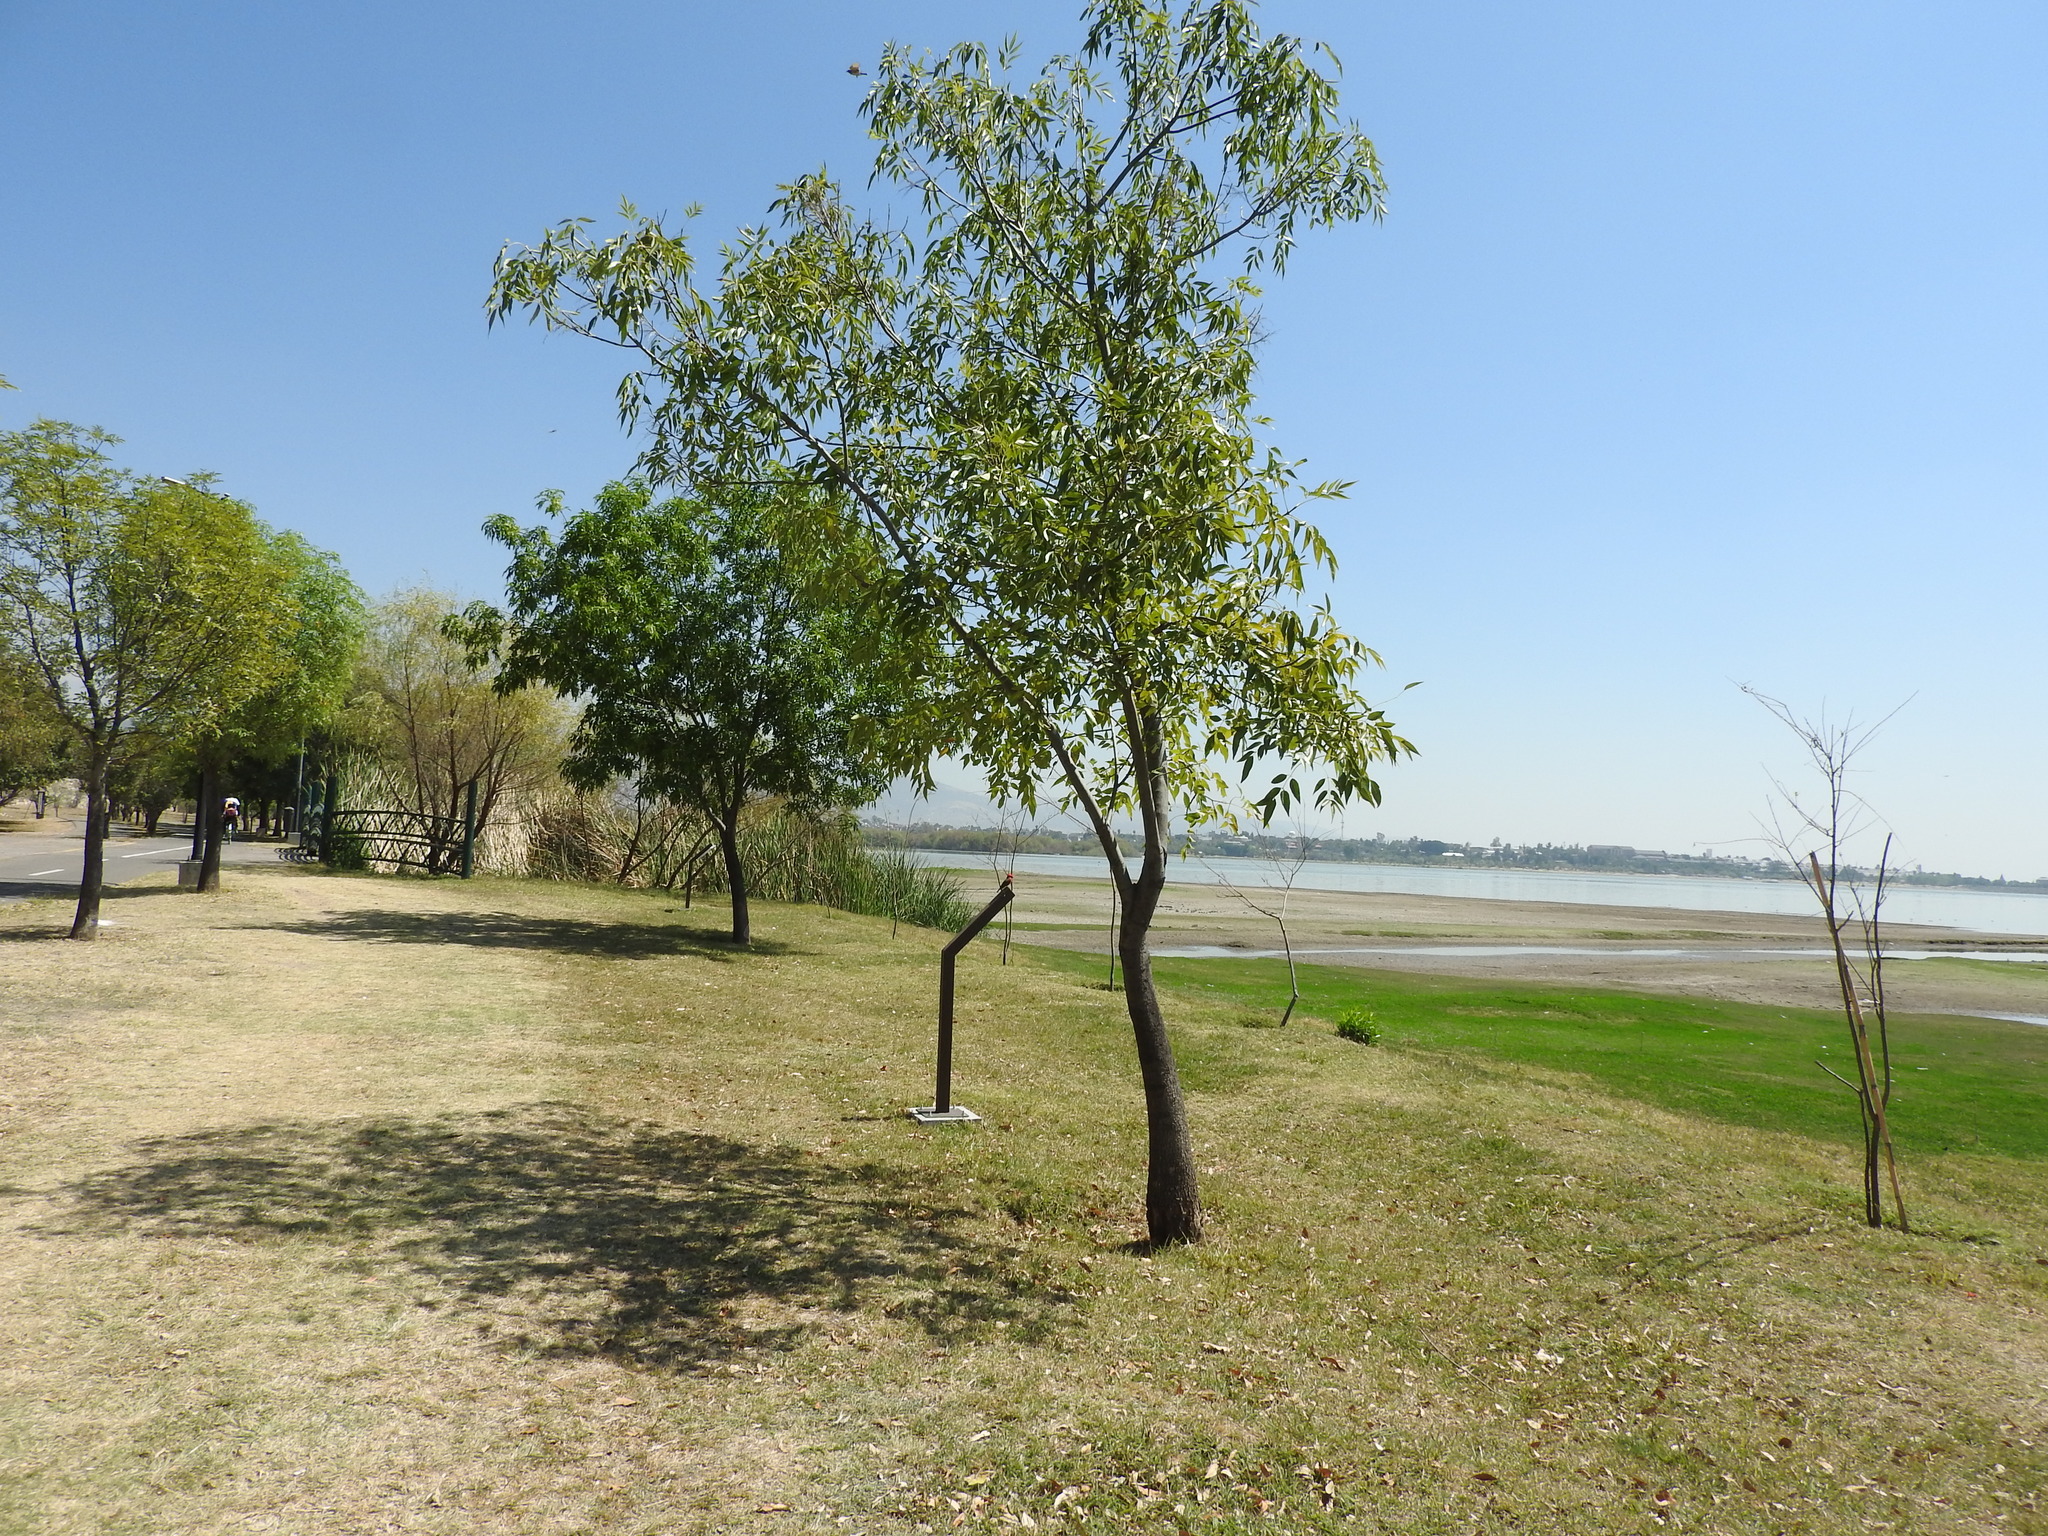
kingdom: Animalia
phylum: Chordata
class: Aves
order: Passeriformes
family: Tyrannidae
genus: Pyrocephalus
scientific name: Pyrocephalus rubinus
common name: Vermilion flycatcher
